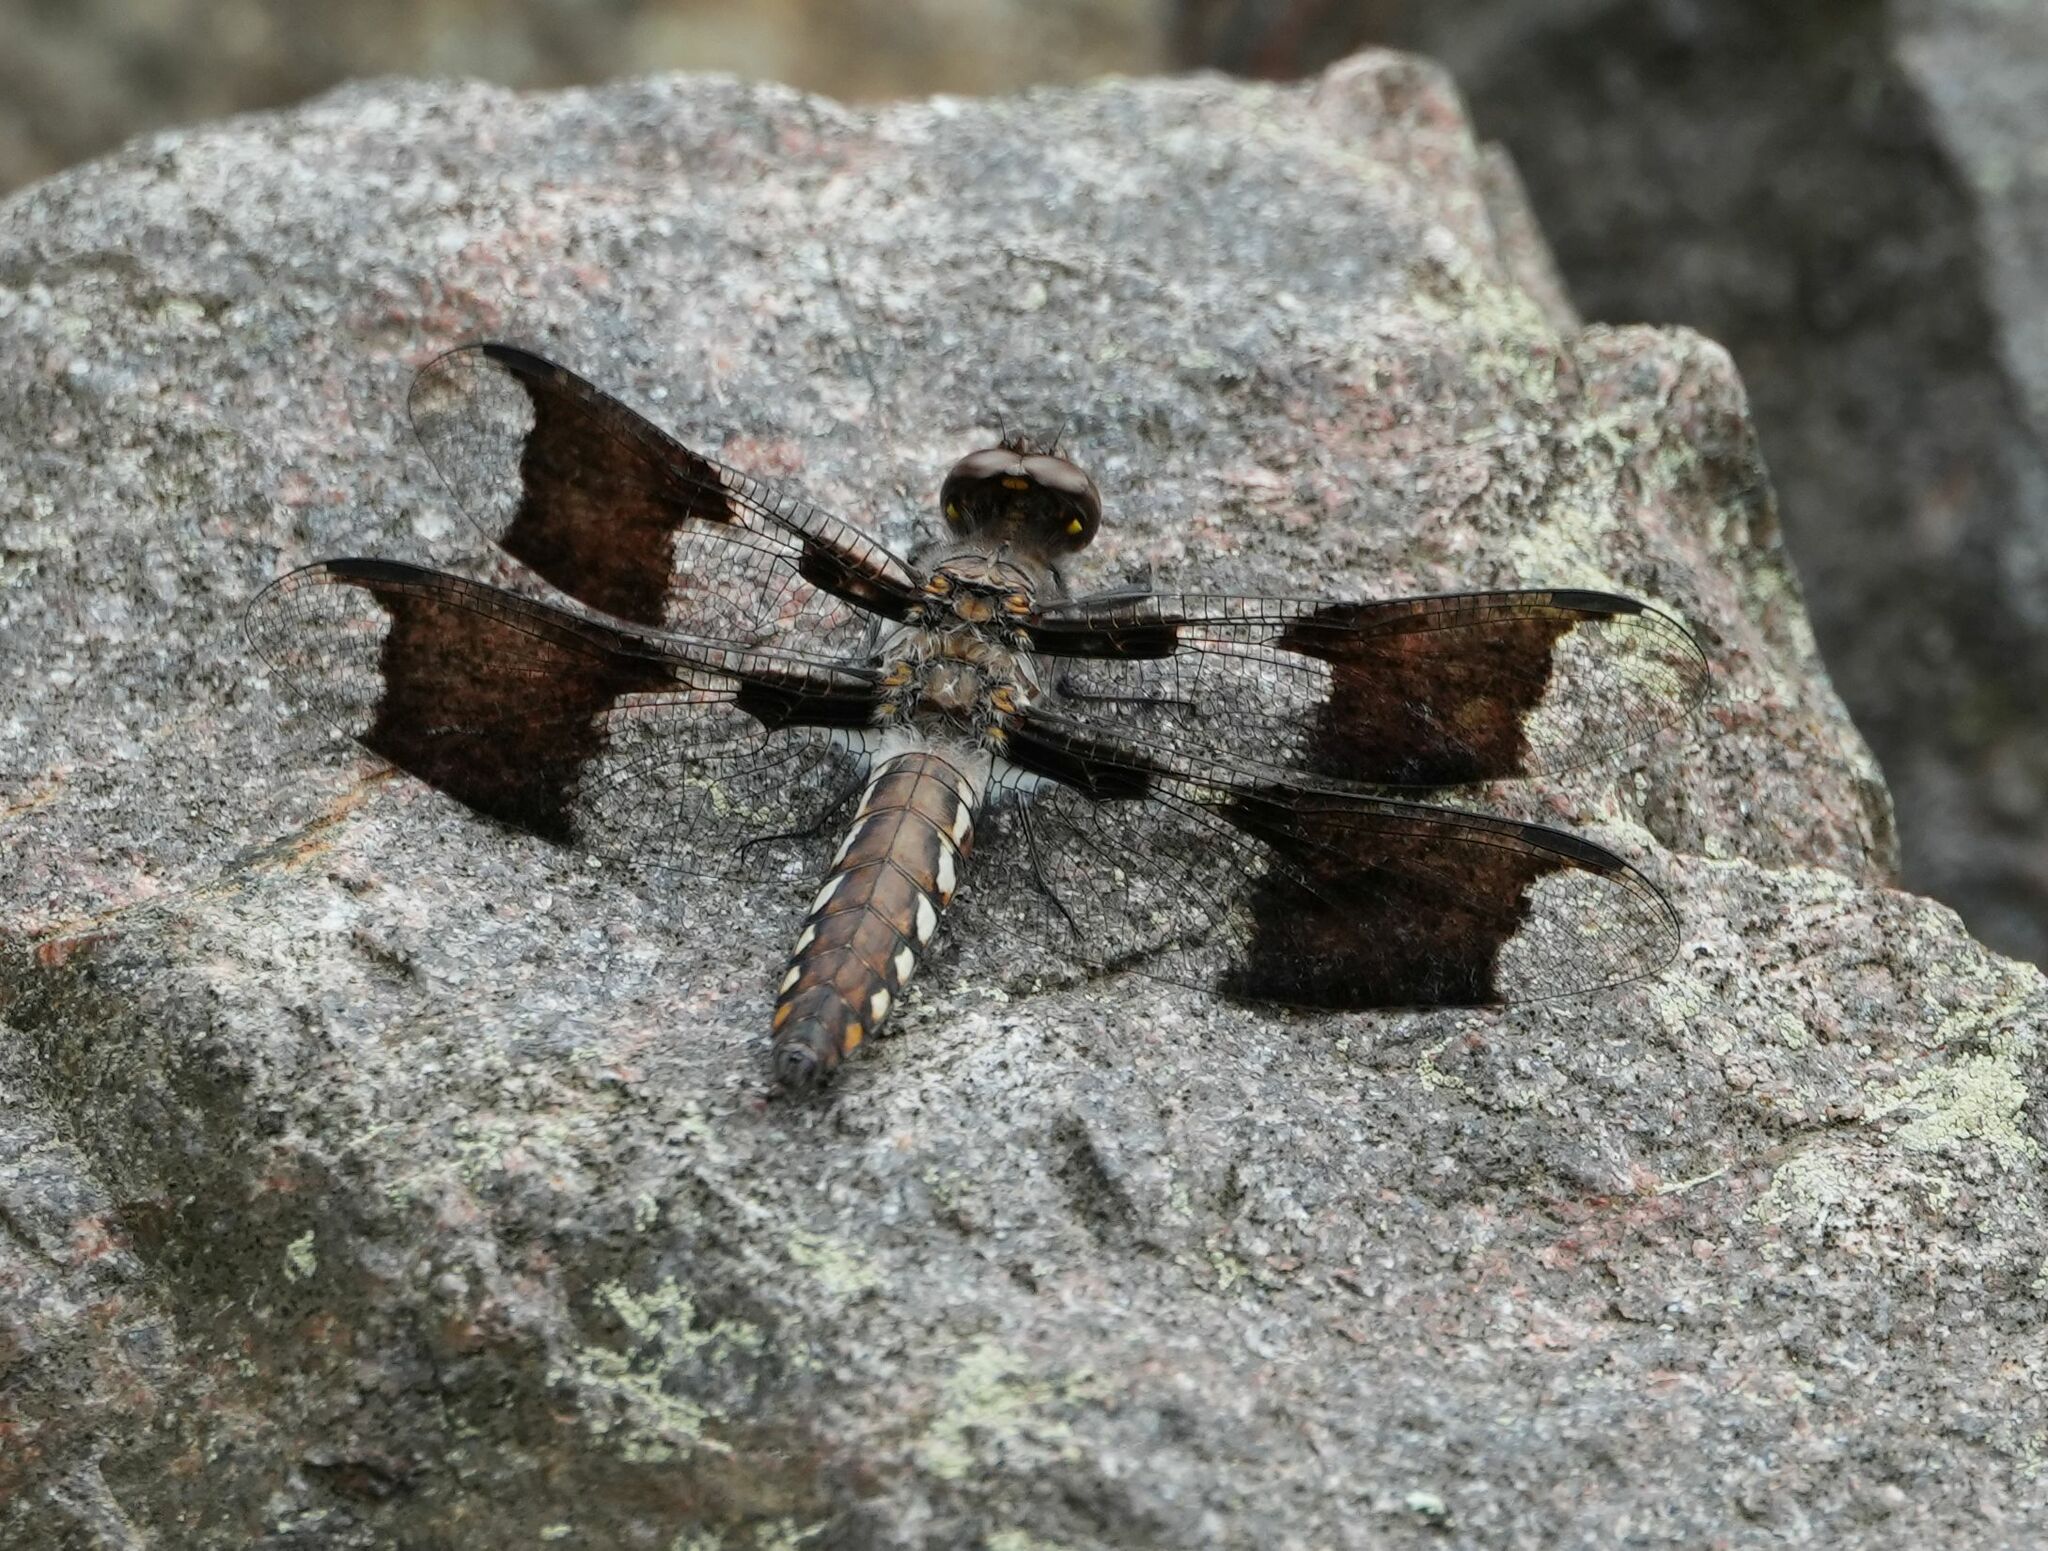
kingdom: Animalia
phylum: Arthropoda
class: Insecta
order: Odonata
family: Libellulidae
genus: Plathemis
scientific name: Plathemis lydia
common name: Common whitetail
